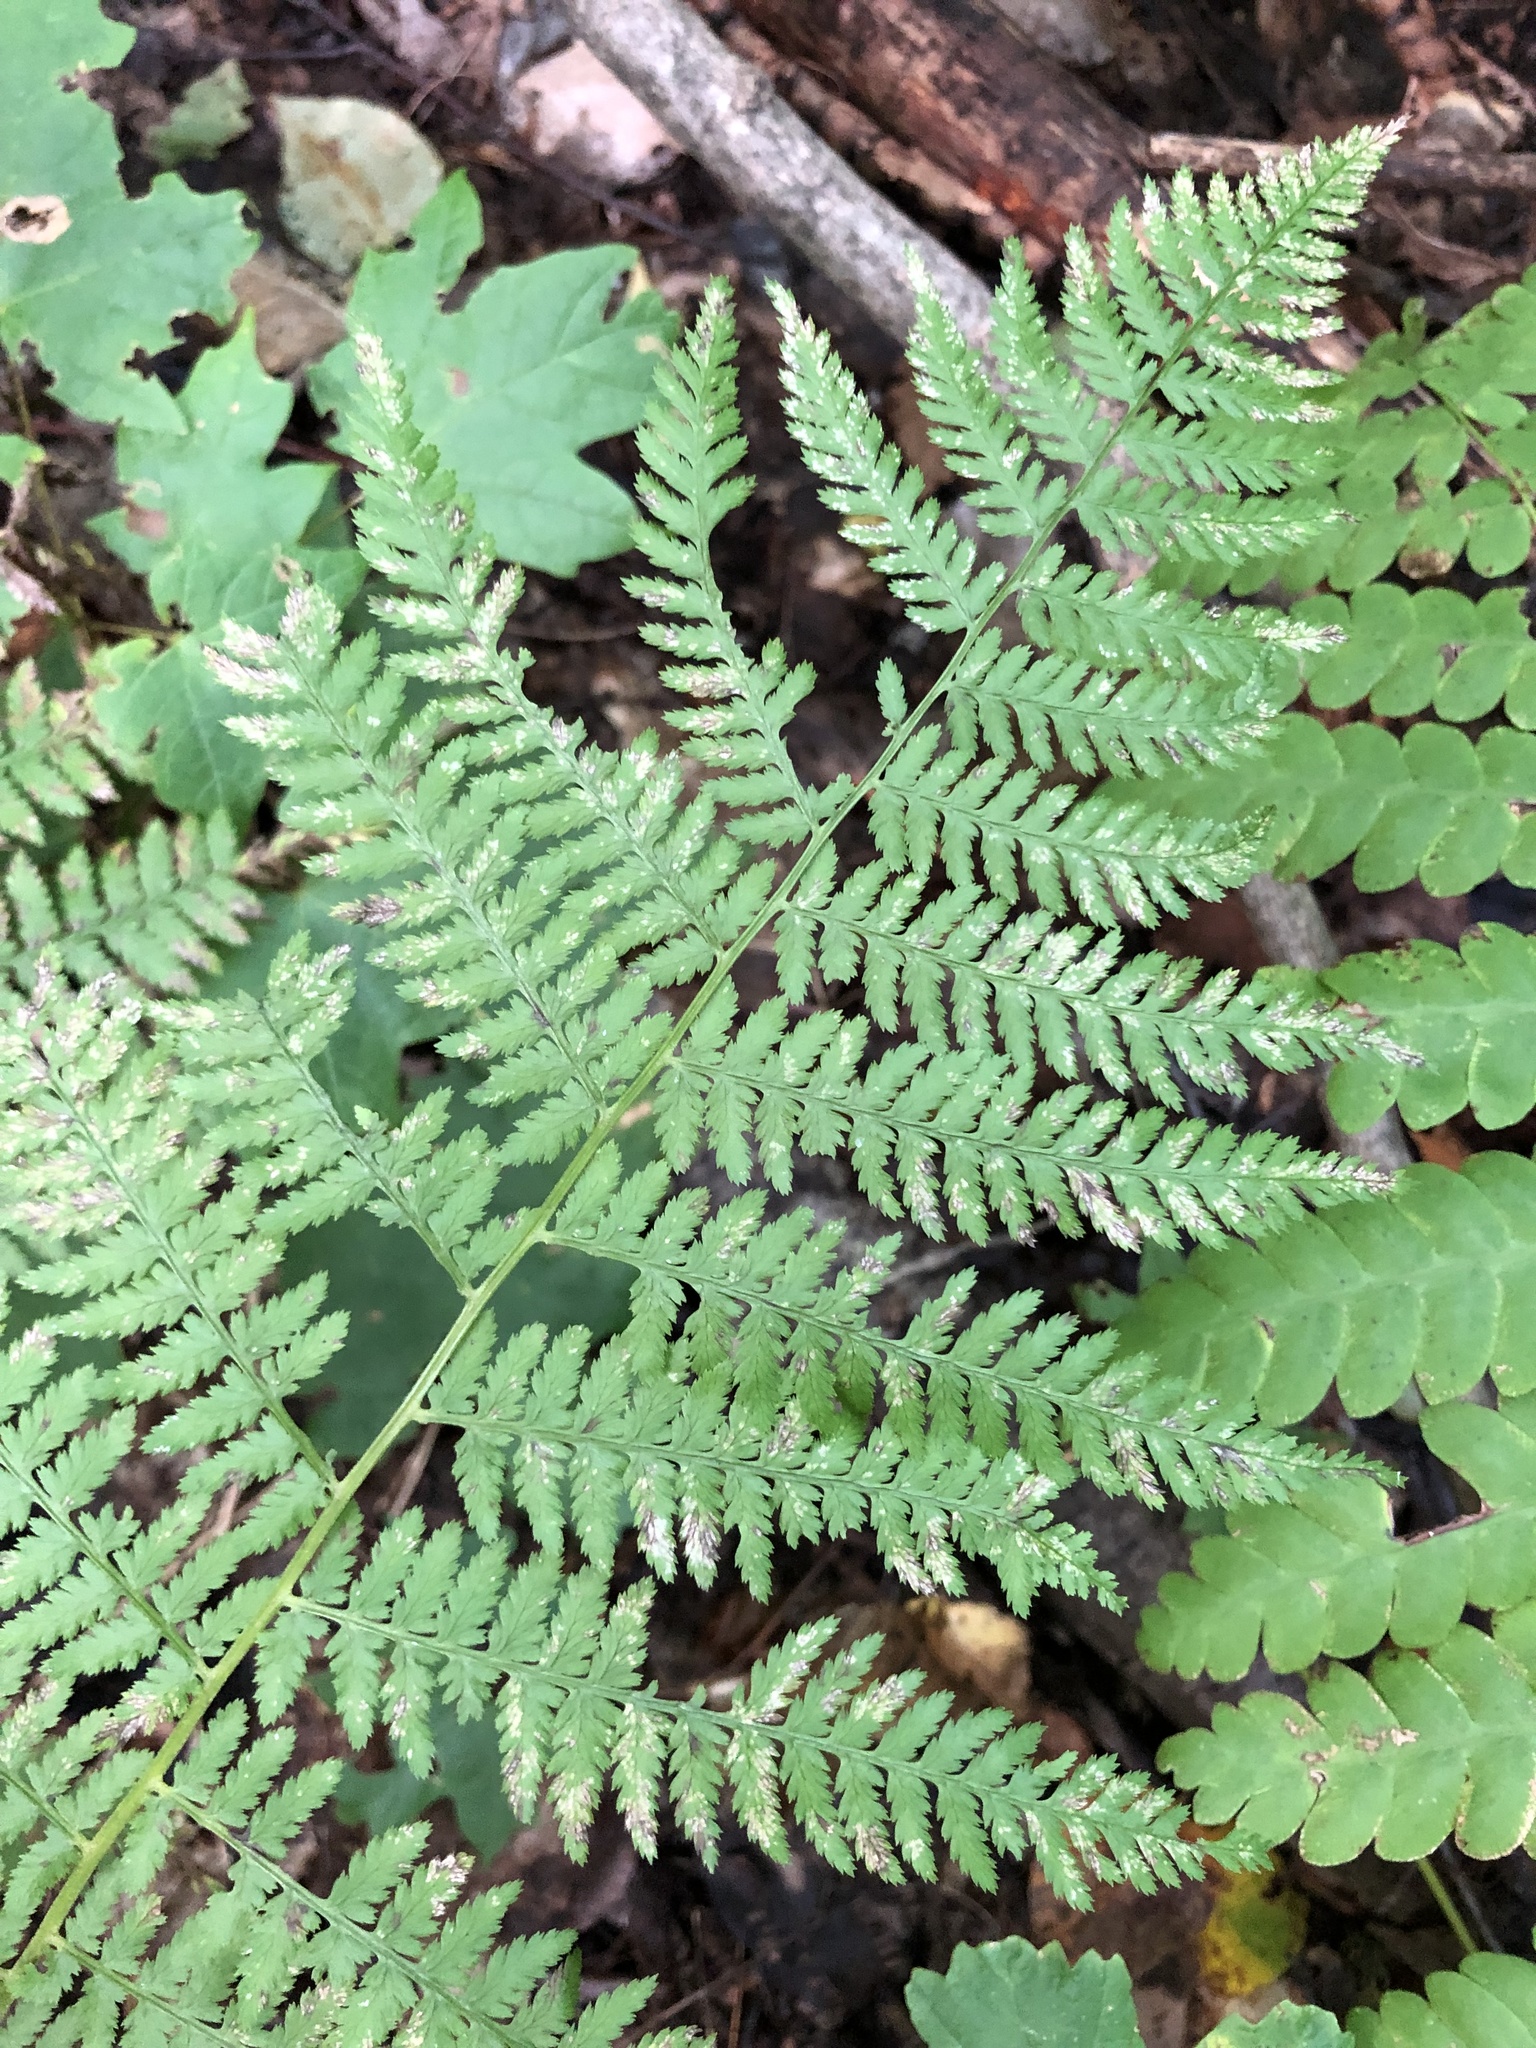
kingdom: Plantae
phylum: Tracheophyta
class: Polypodiopsida
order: Polypodiales
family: Athyriaceae
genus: Athyrium
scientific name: Athyrium angustum
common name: Northern lady fern
